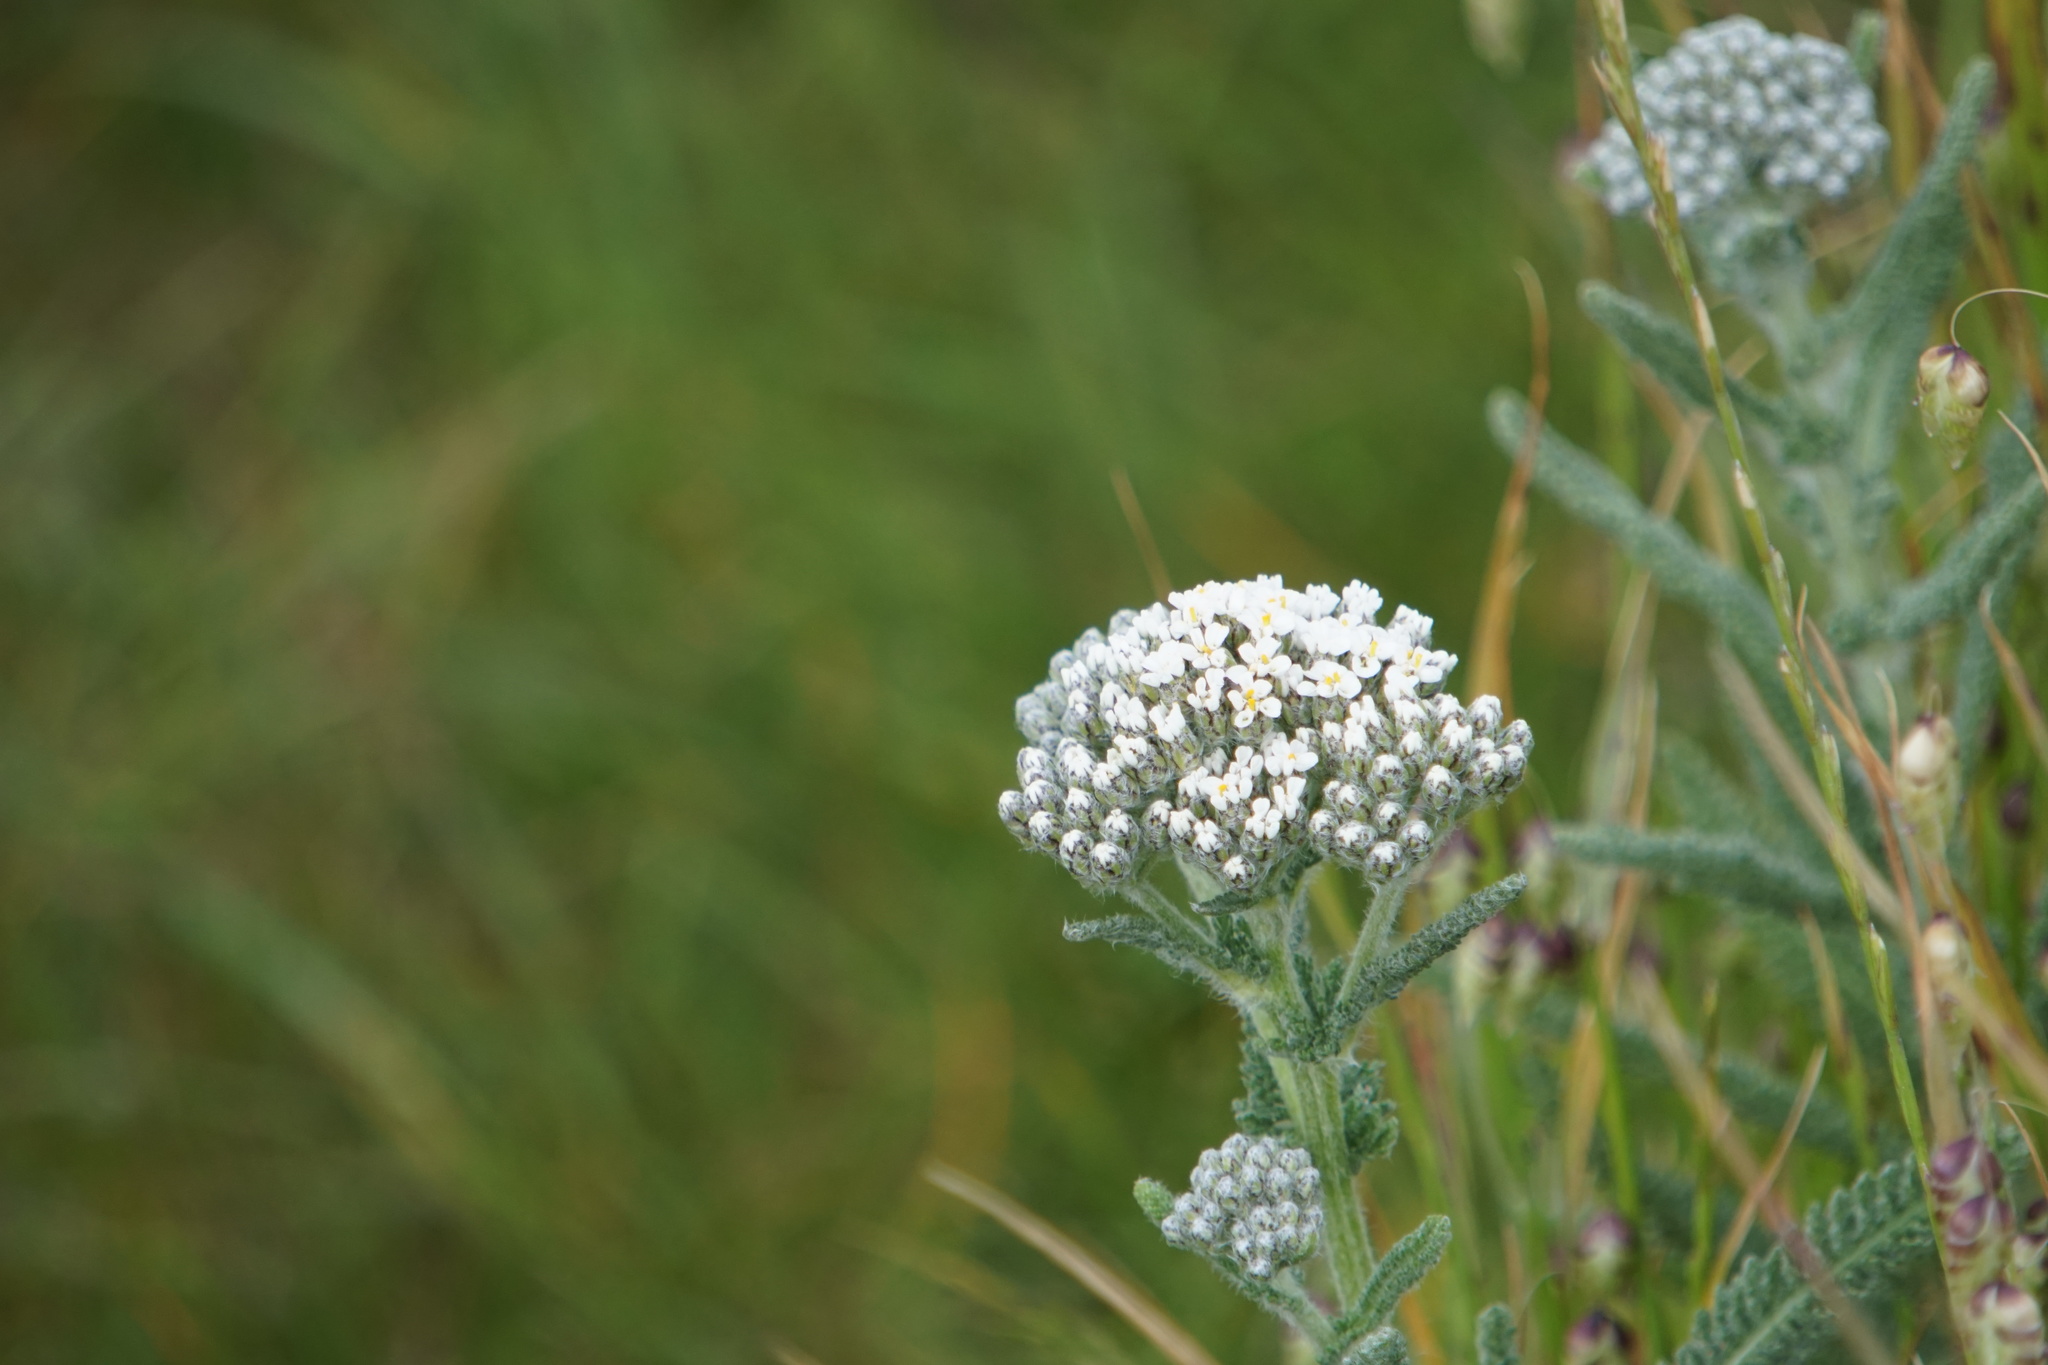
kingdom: Plantae
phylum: Tracheophyta
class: Magnoliopsida
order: Asterales
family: Asteraceae
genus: Achillea
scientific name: Achillea millefolium
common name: Yarrow
